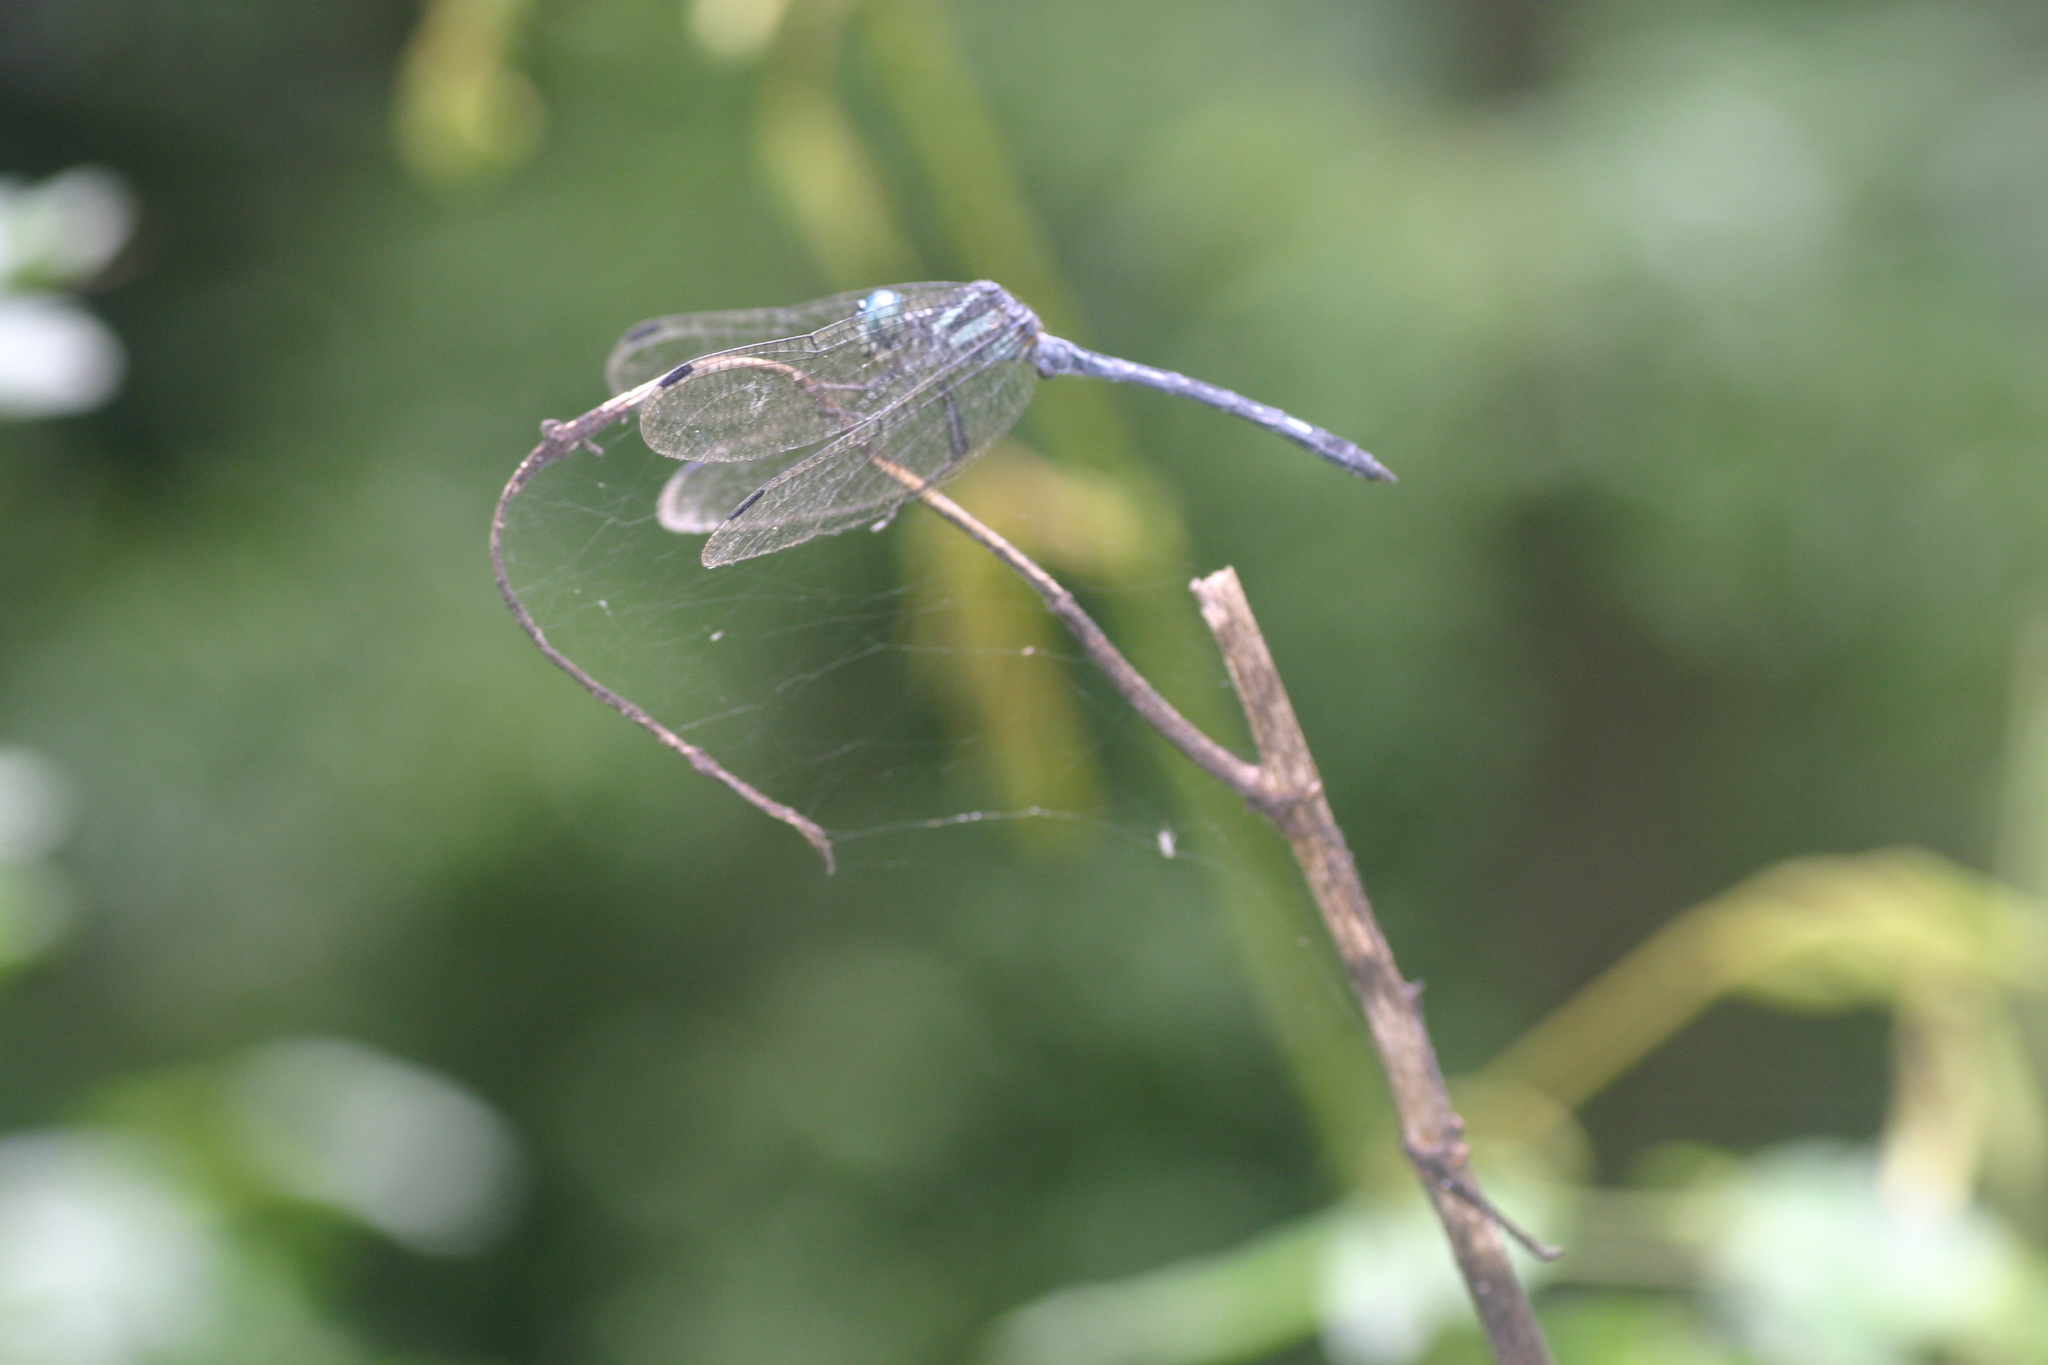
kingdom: Animalia
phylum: Arthropoda
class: Insecta
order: Odonata
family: Libellulidae
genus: Hylaeothemis
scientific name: Hylaeothemis apicalis
